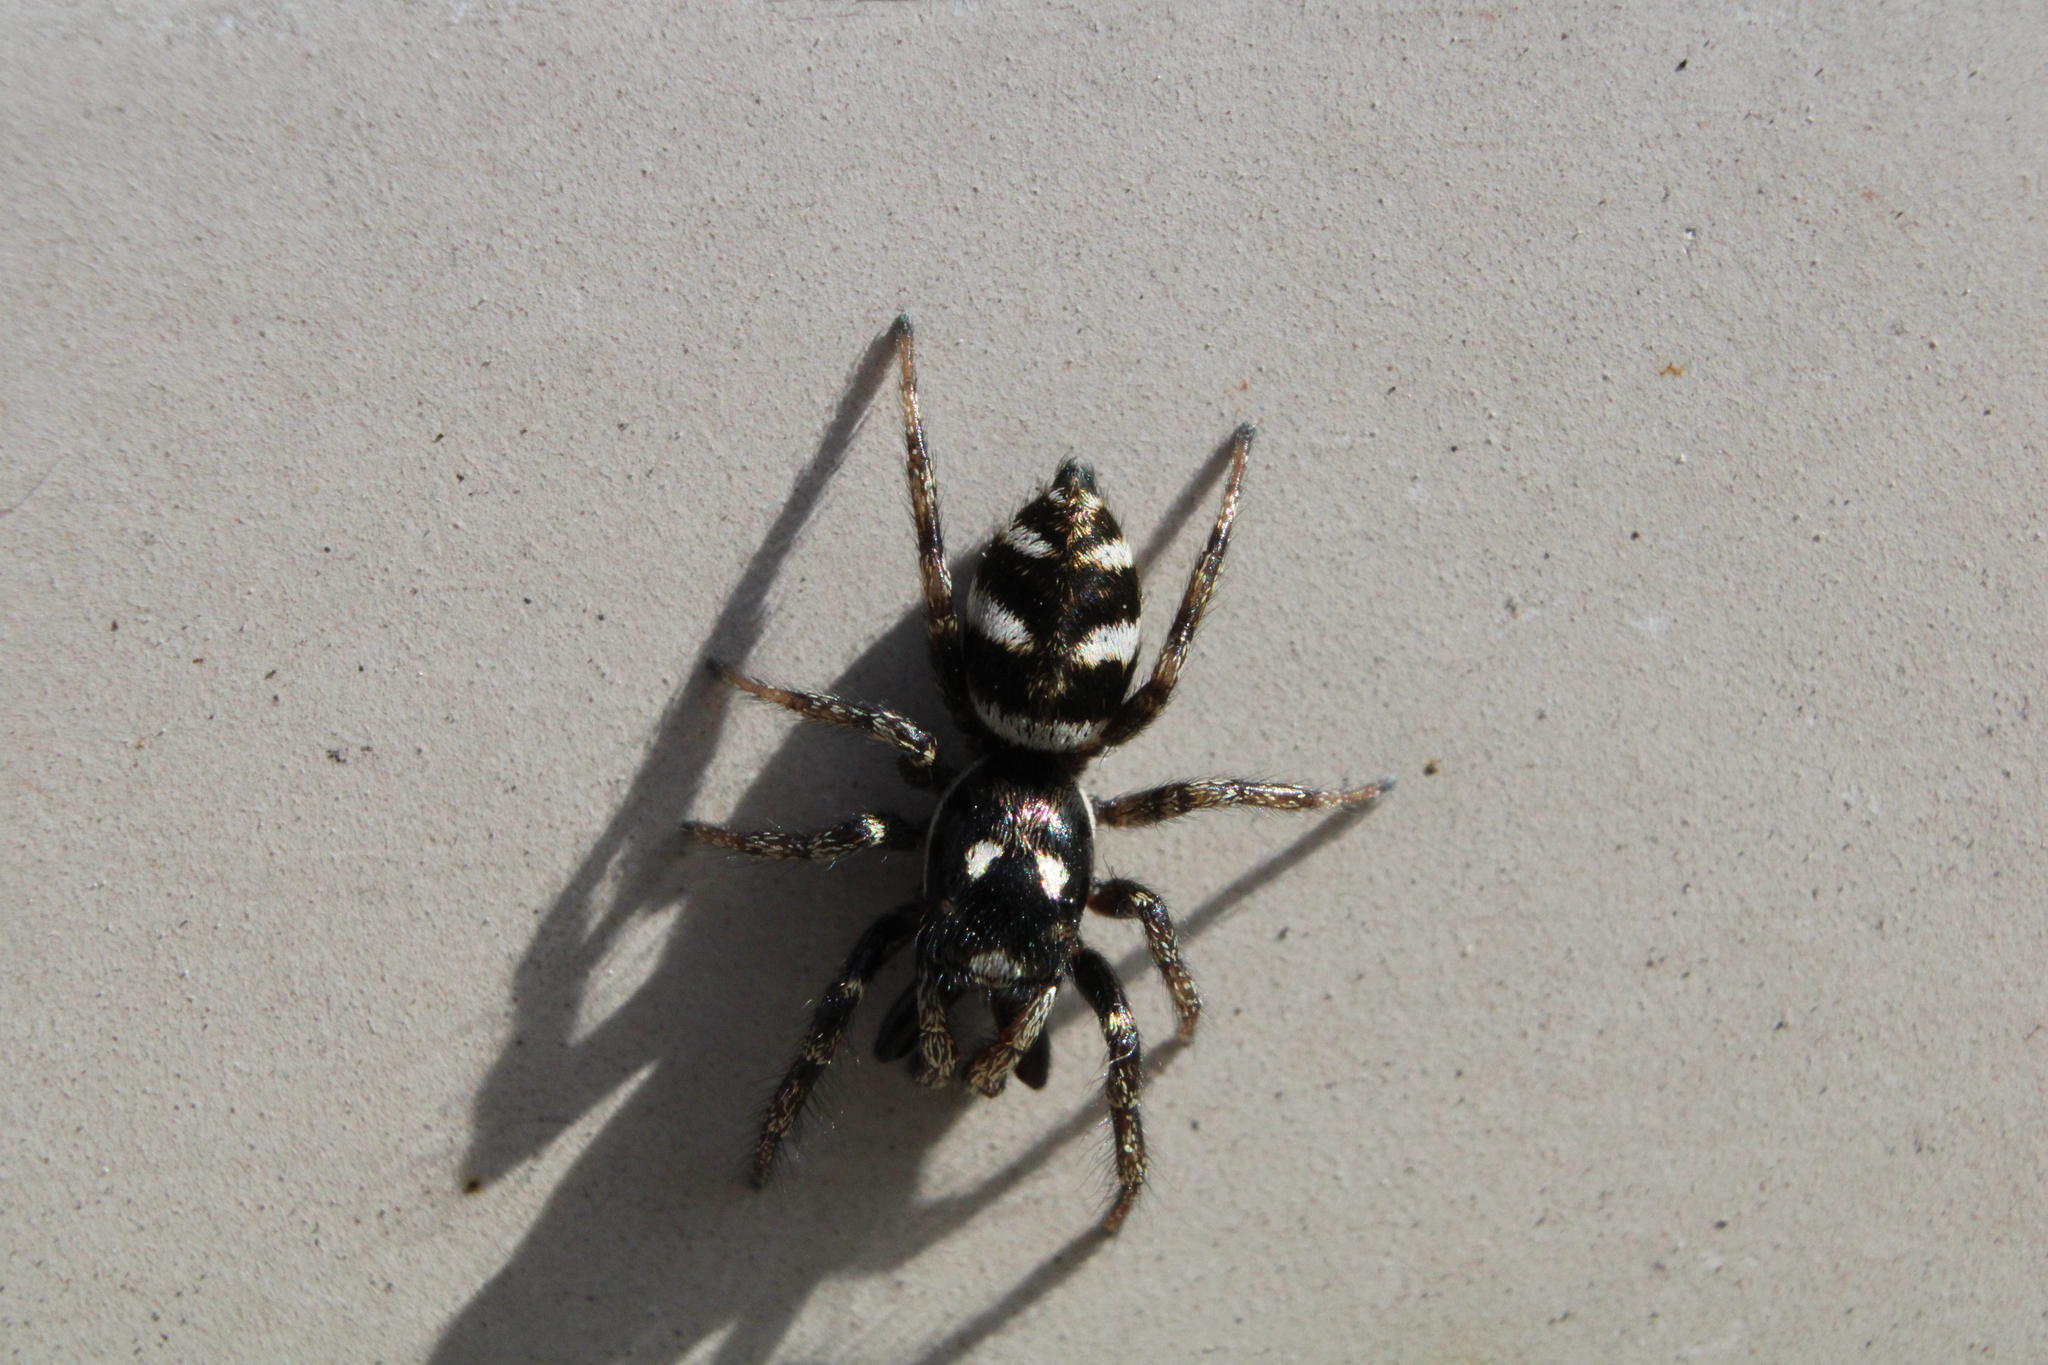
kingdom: Animalia
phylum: Arthropoda
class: Arachnida
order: Araneae
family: Salticidae
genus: Salticus
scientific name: Salticus scenicus
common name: Zebra jumper
